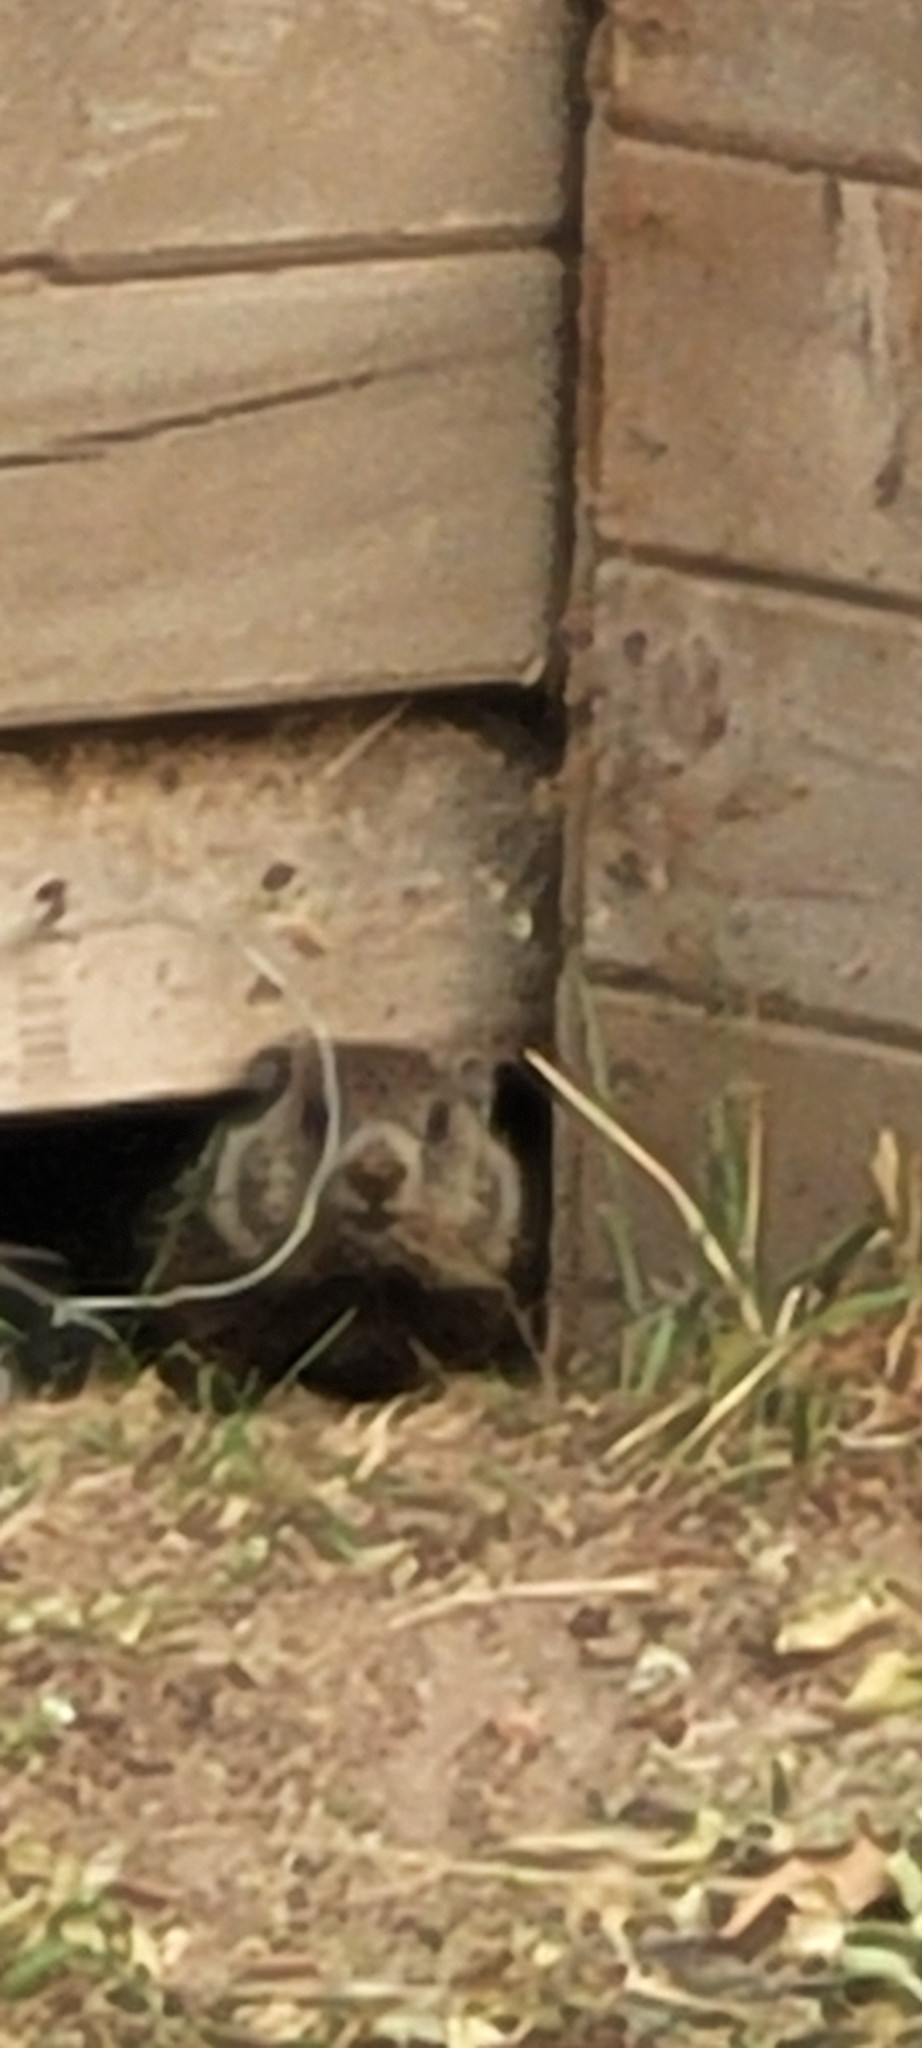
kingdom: Animalia
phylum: Chordata
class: Mammalia
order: Rodentia
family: Sciuridae
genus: Marmota
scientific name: Marmota monax
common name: Groundhog
